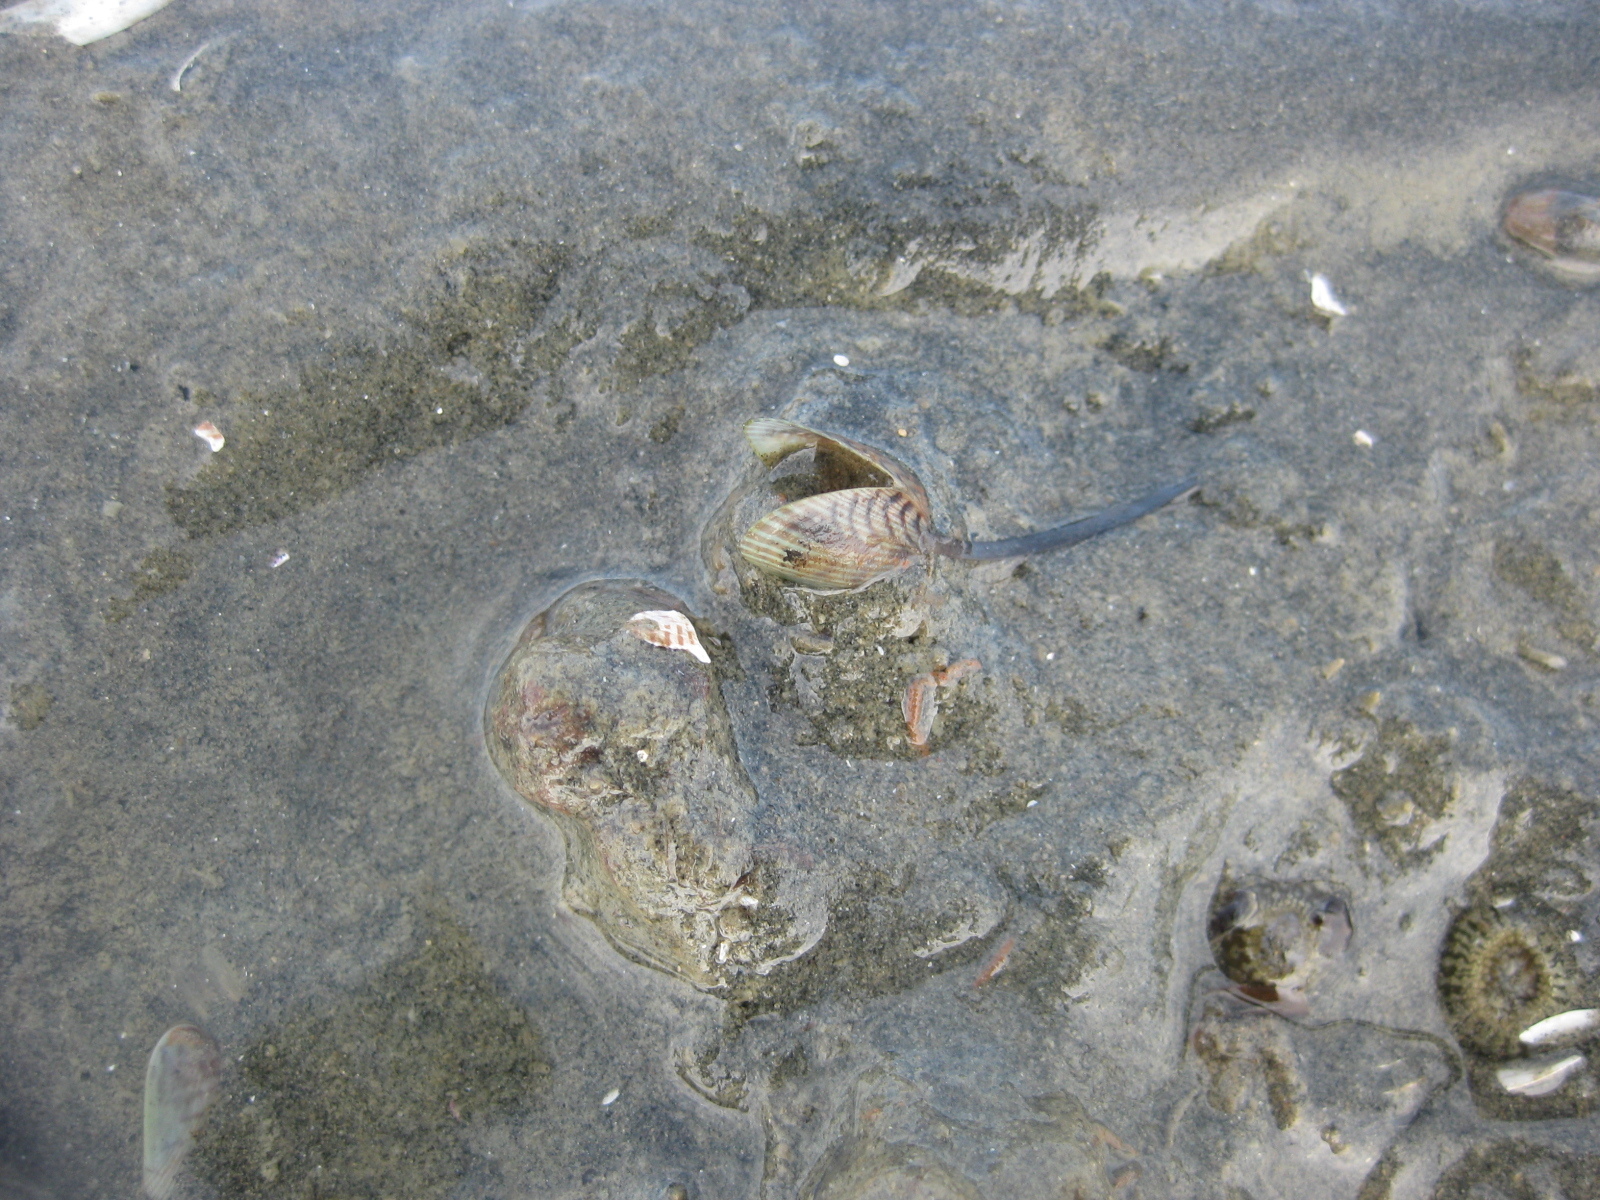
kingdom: Animalia
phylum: Mollusca
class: Bivalvia
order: Mytilida
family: Mytilidae
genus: Arcuatula
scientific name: Arcuatula senhousia
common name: Asian mussel
